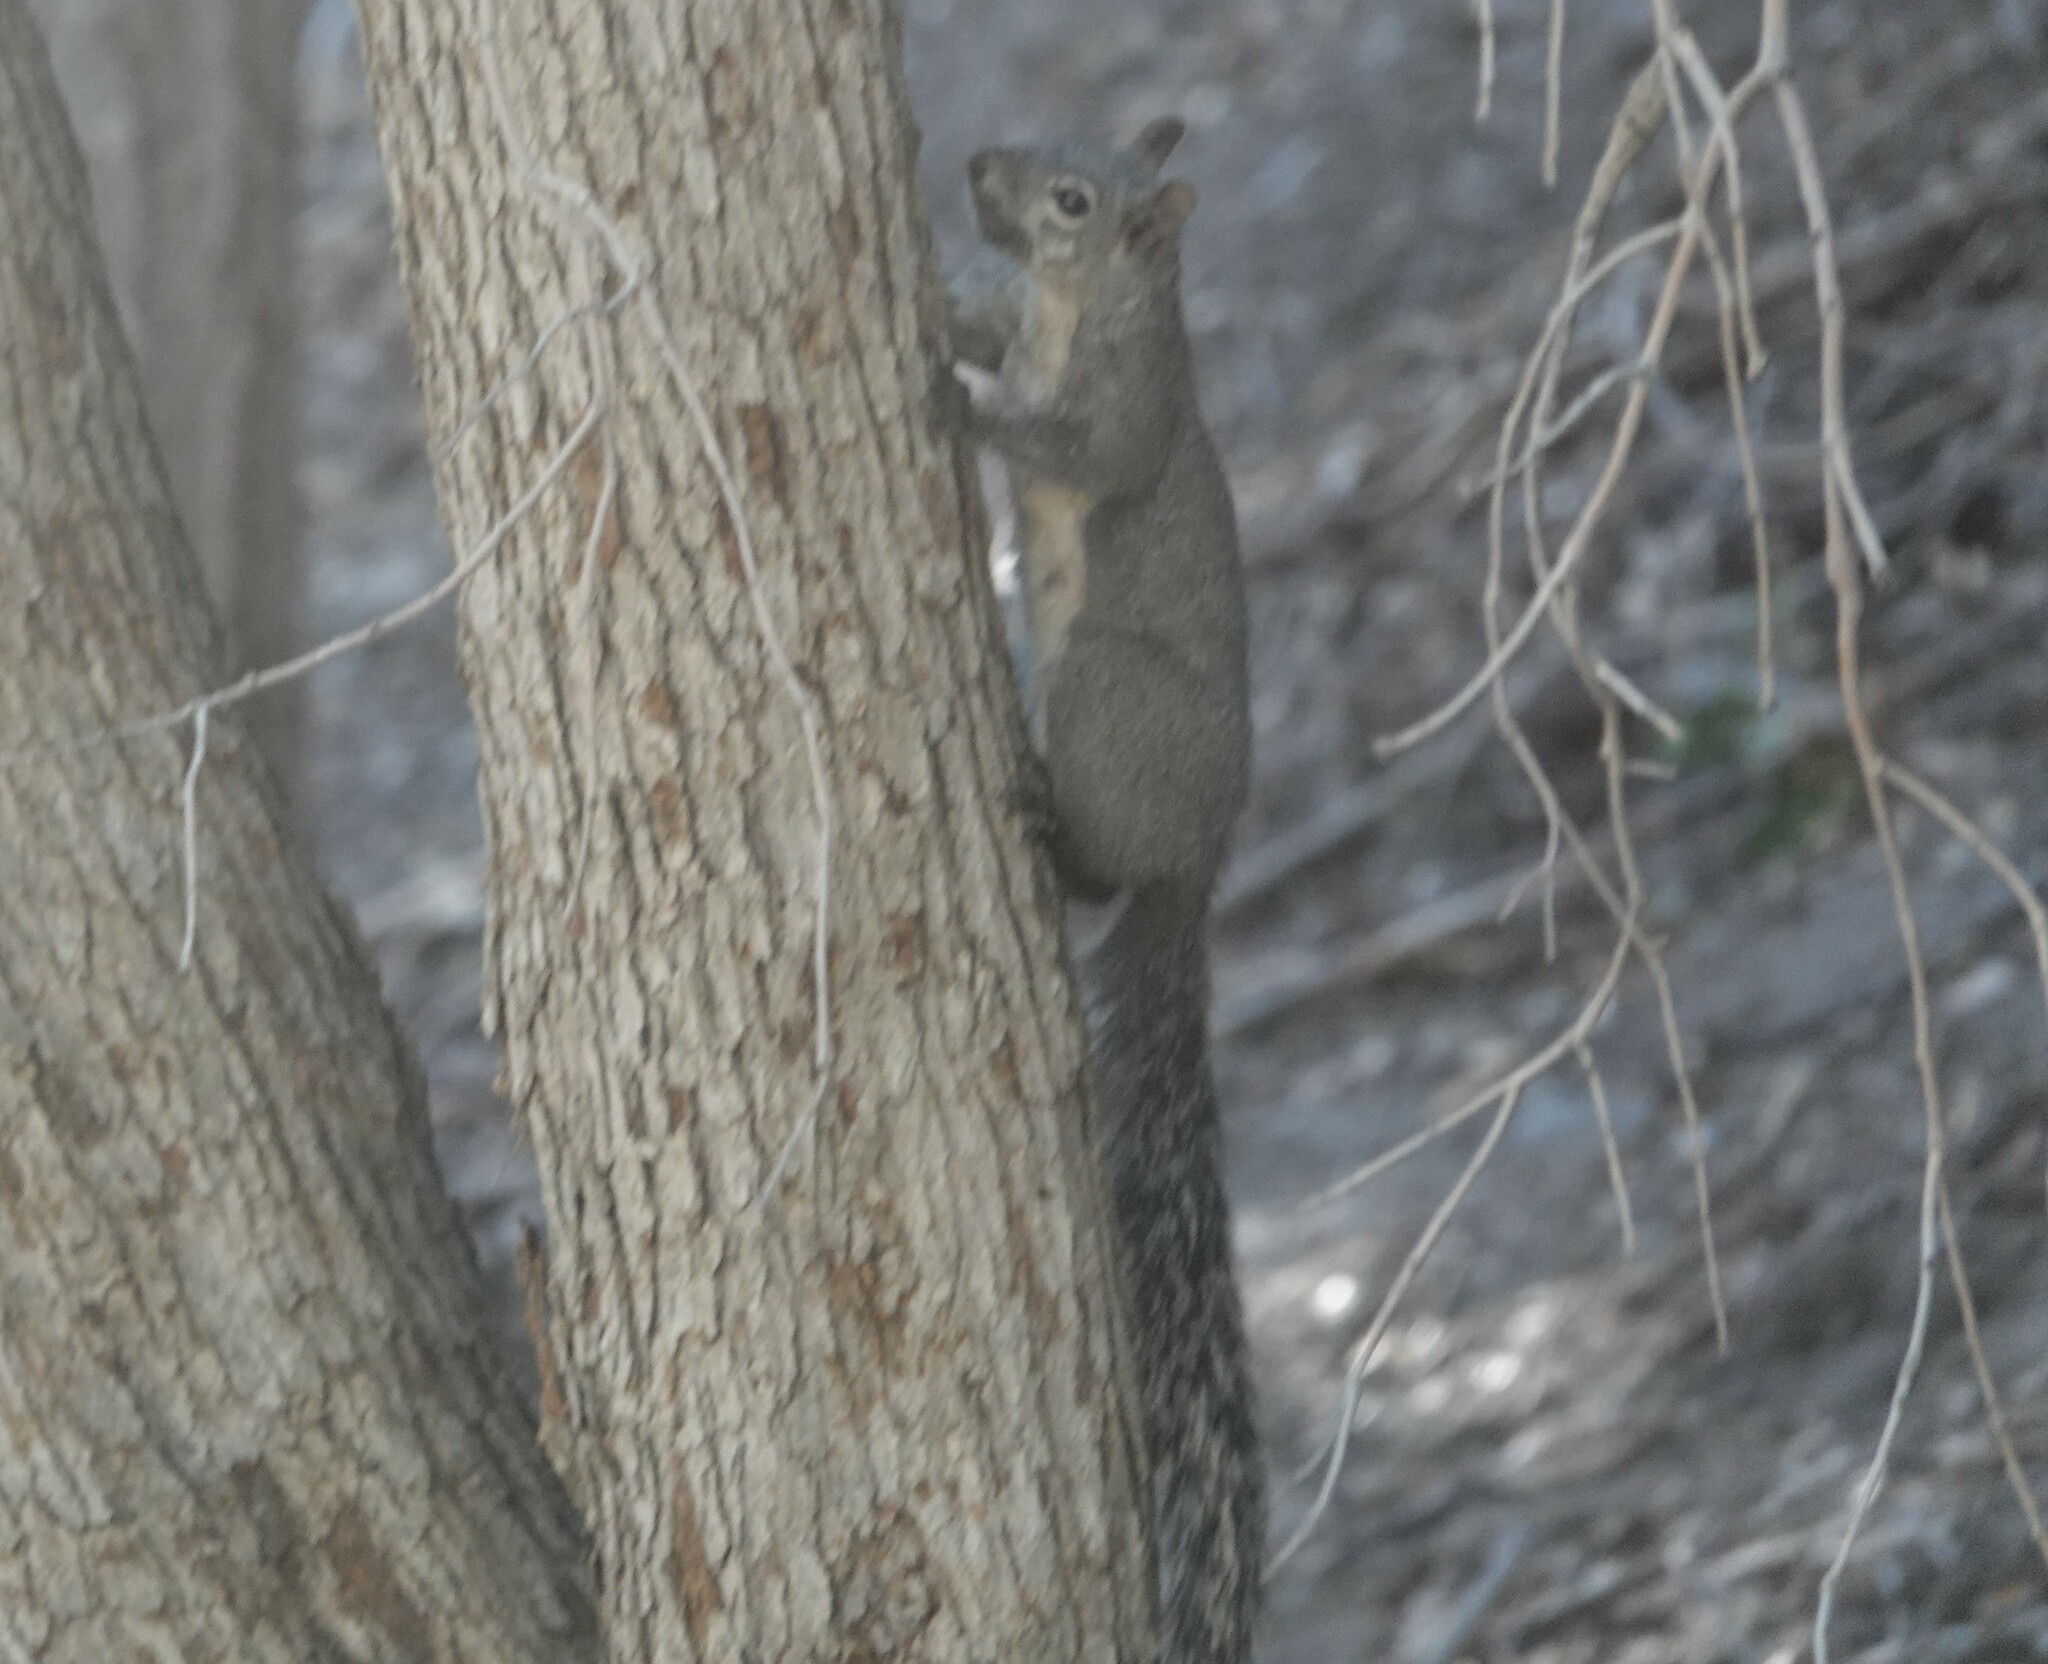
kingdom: Animalia
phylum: Chordata
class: Mammalia
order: Rodentia
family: Sciuridae
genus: Sciurus
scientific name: Sciurus griseus
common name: Western gray squirrel
